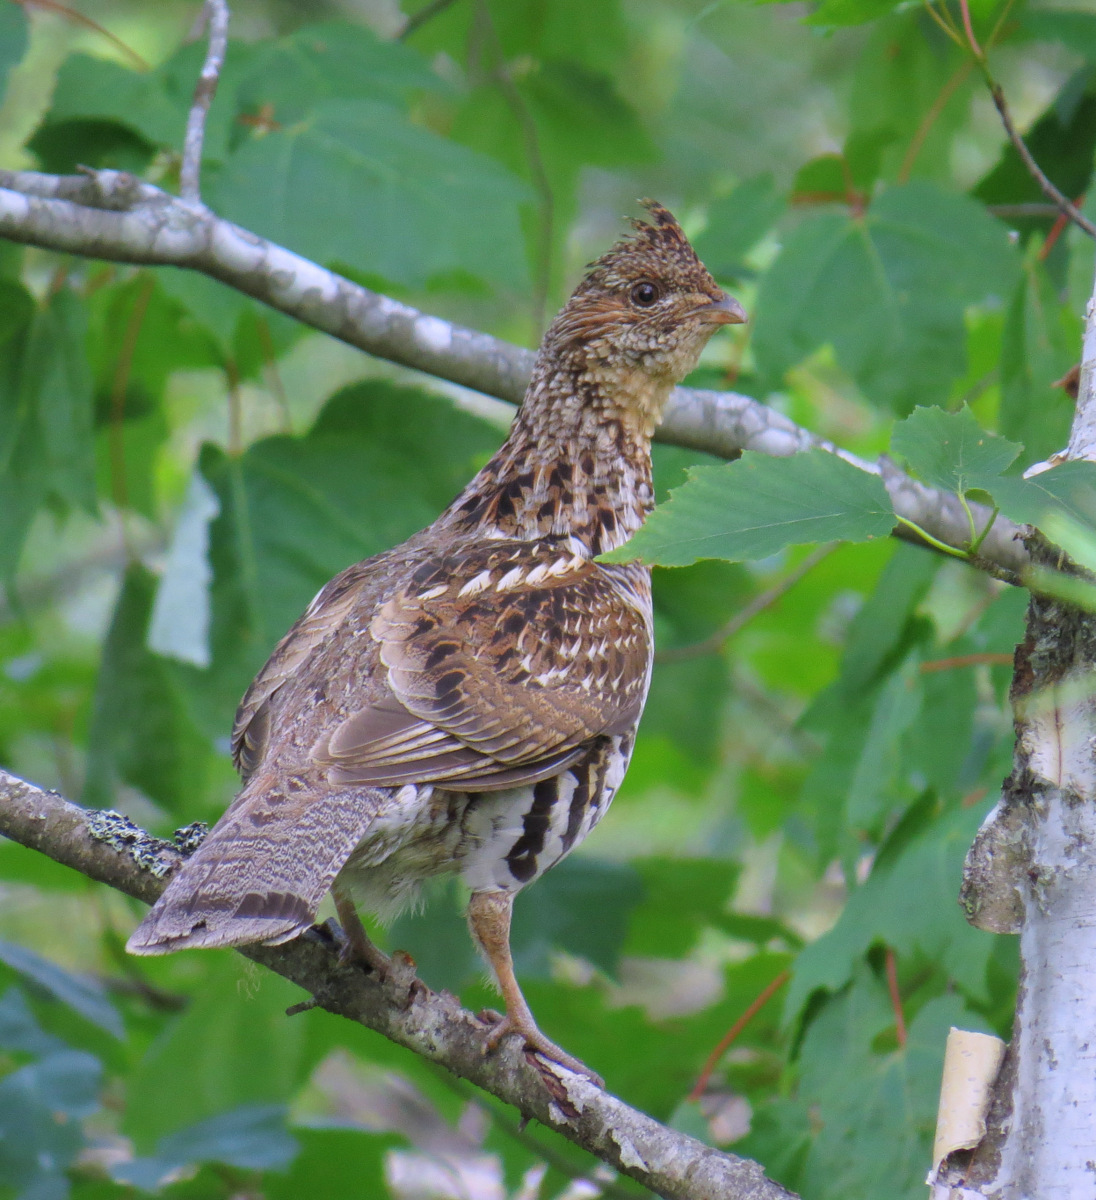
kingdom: Animalia
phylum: Chordata
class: Aves
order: Galliformes
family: Phasianidae
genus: Bonasa
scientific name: Bonasa umbellus
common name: Ruffed grouse
